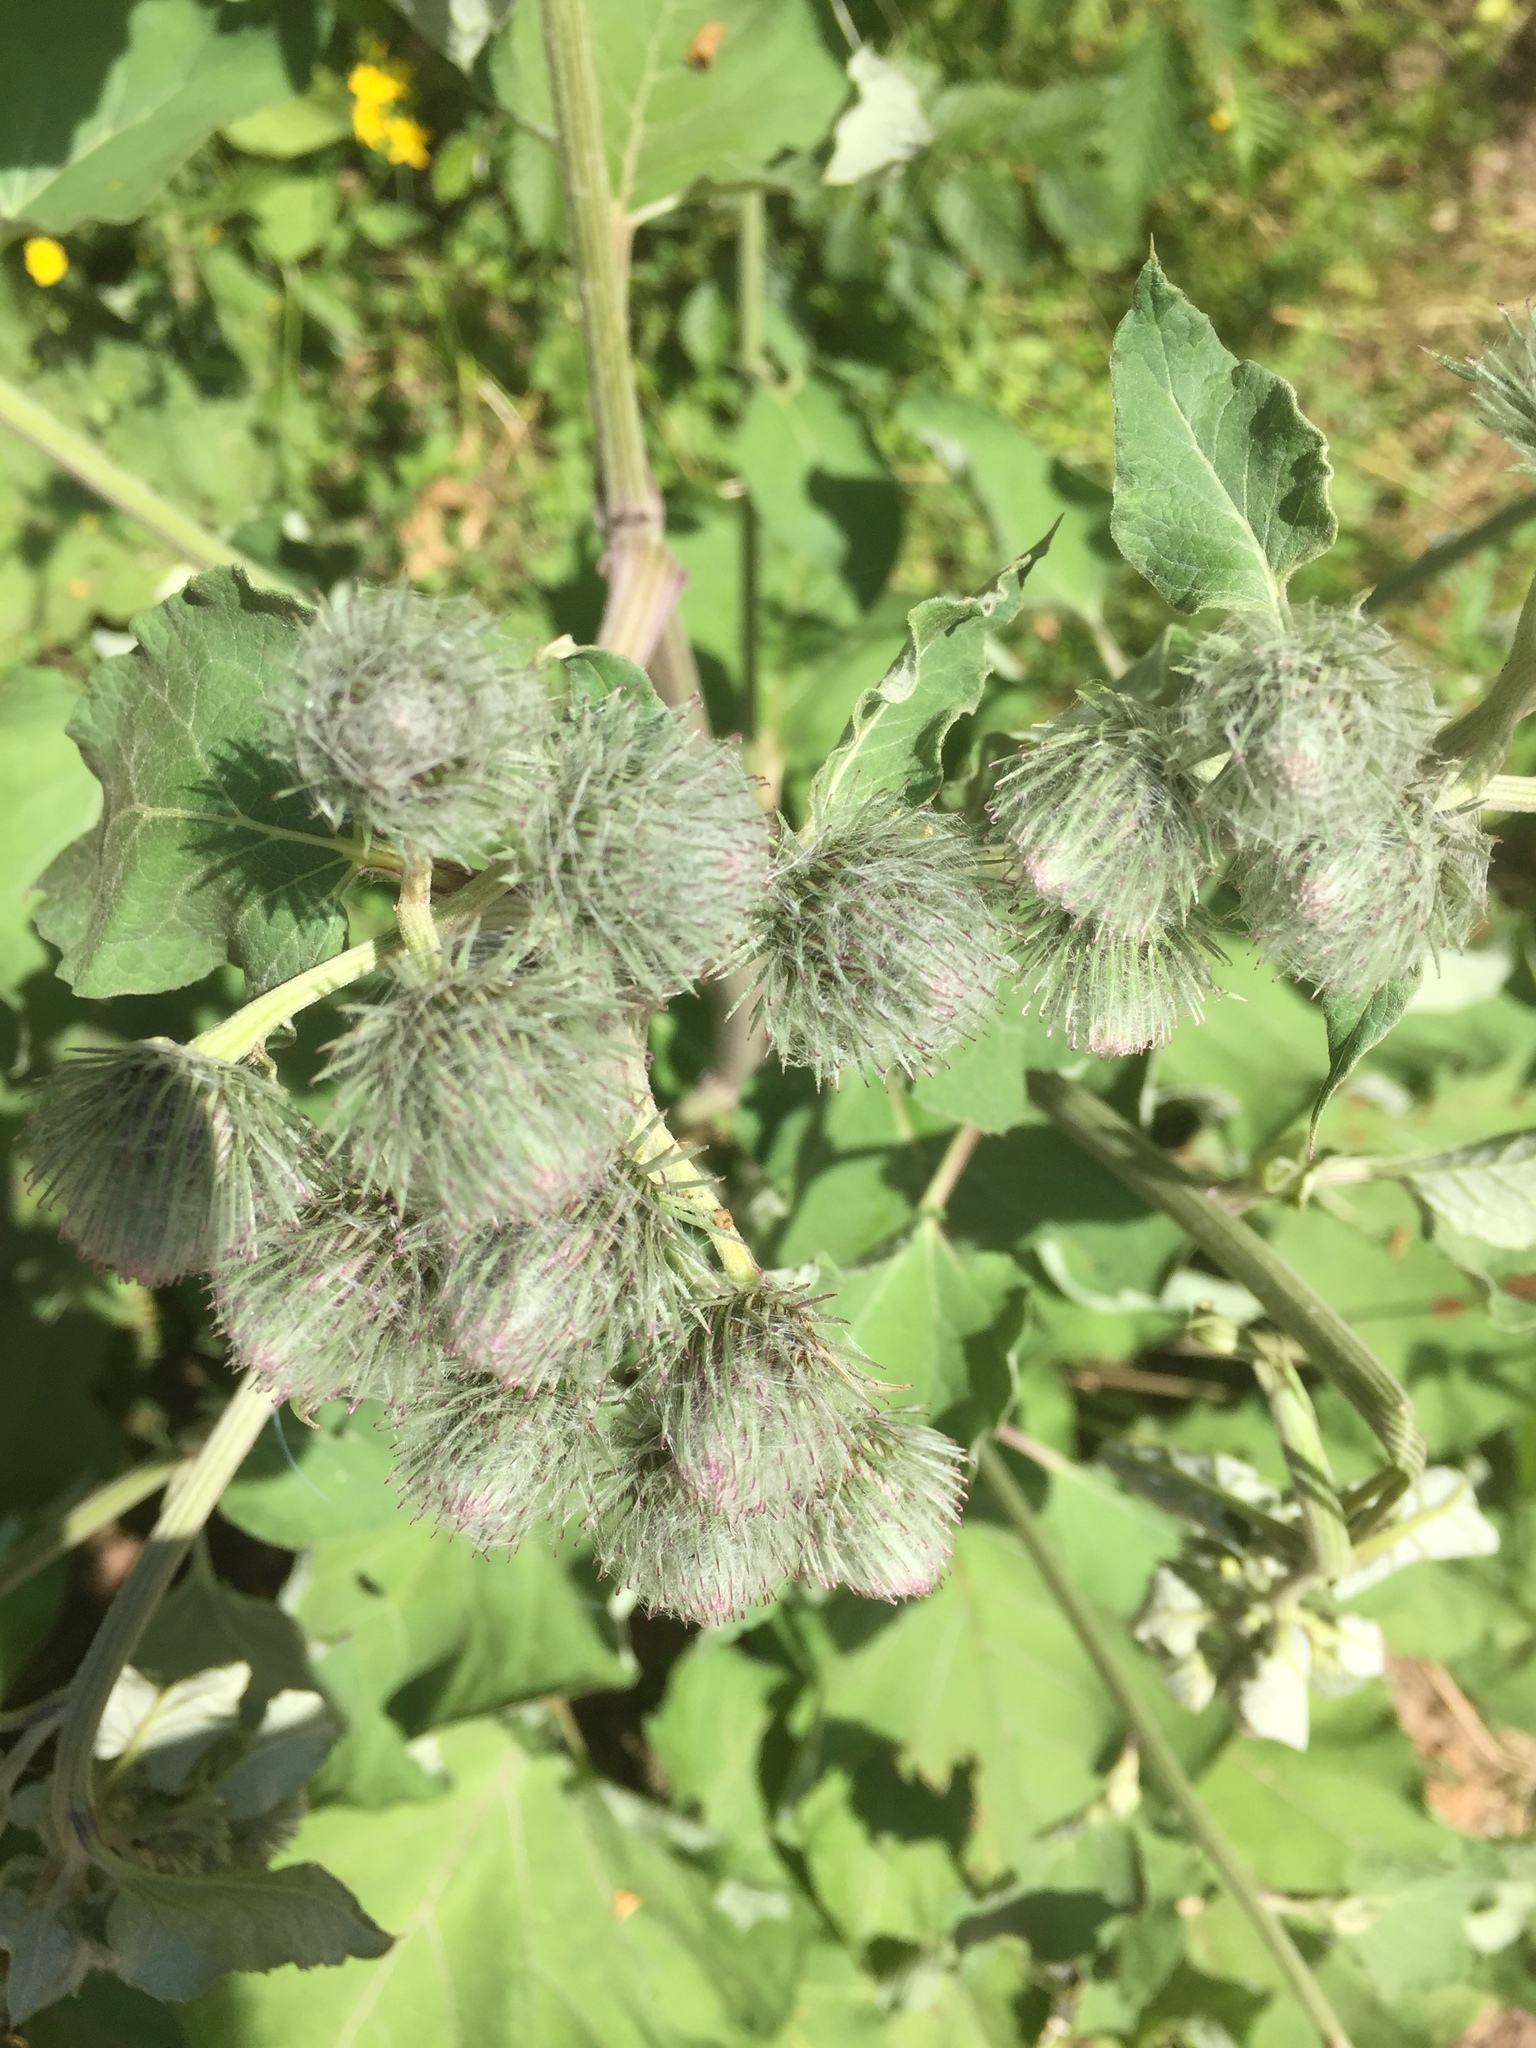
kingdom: Plantae
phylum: Tracheophyta
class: Magnoliopsida
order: Asterales
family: Asteraceae
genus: Arctium
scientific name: Arctium tomentosum
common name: Woolly burdock
